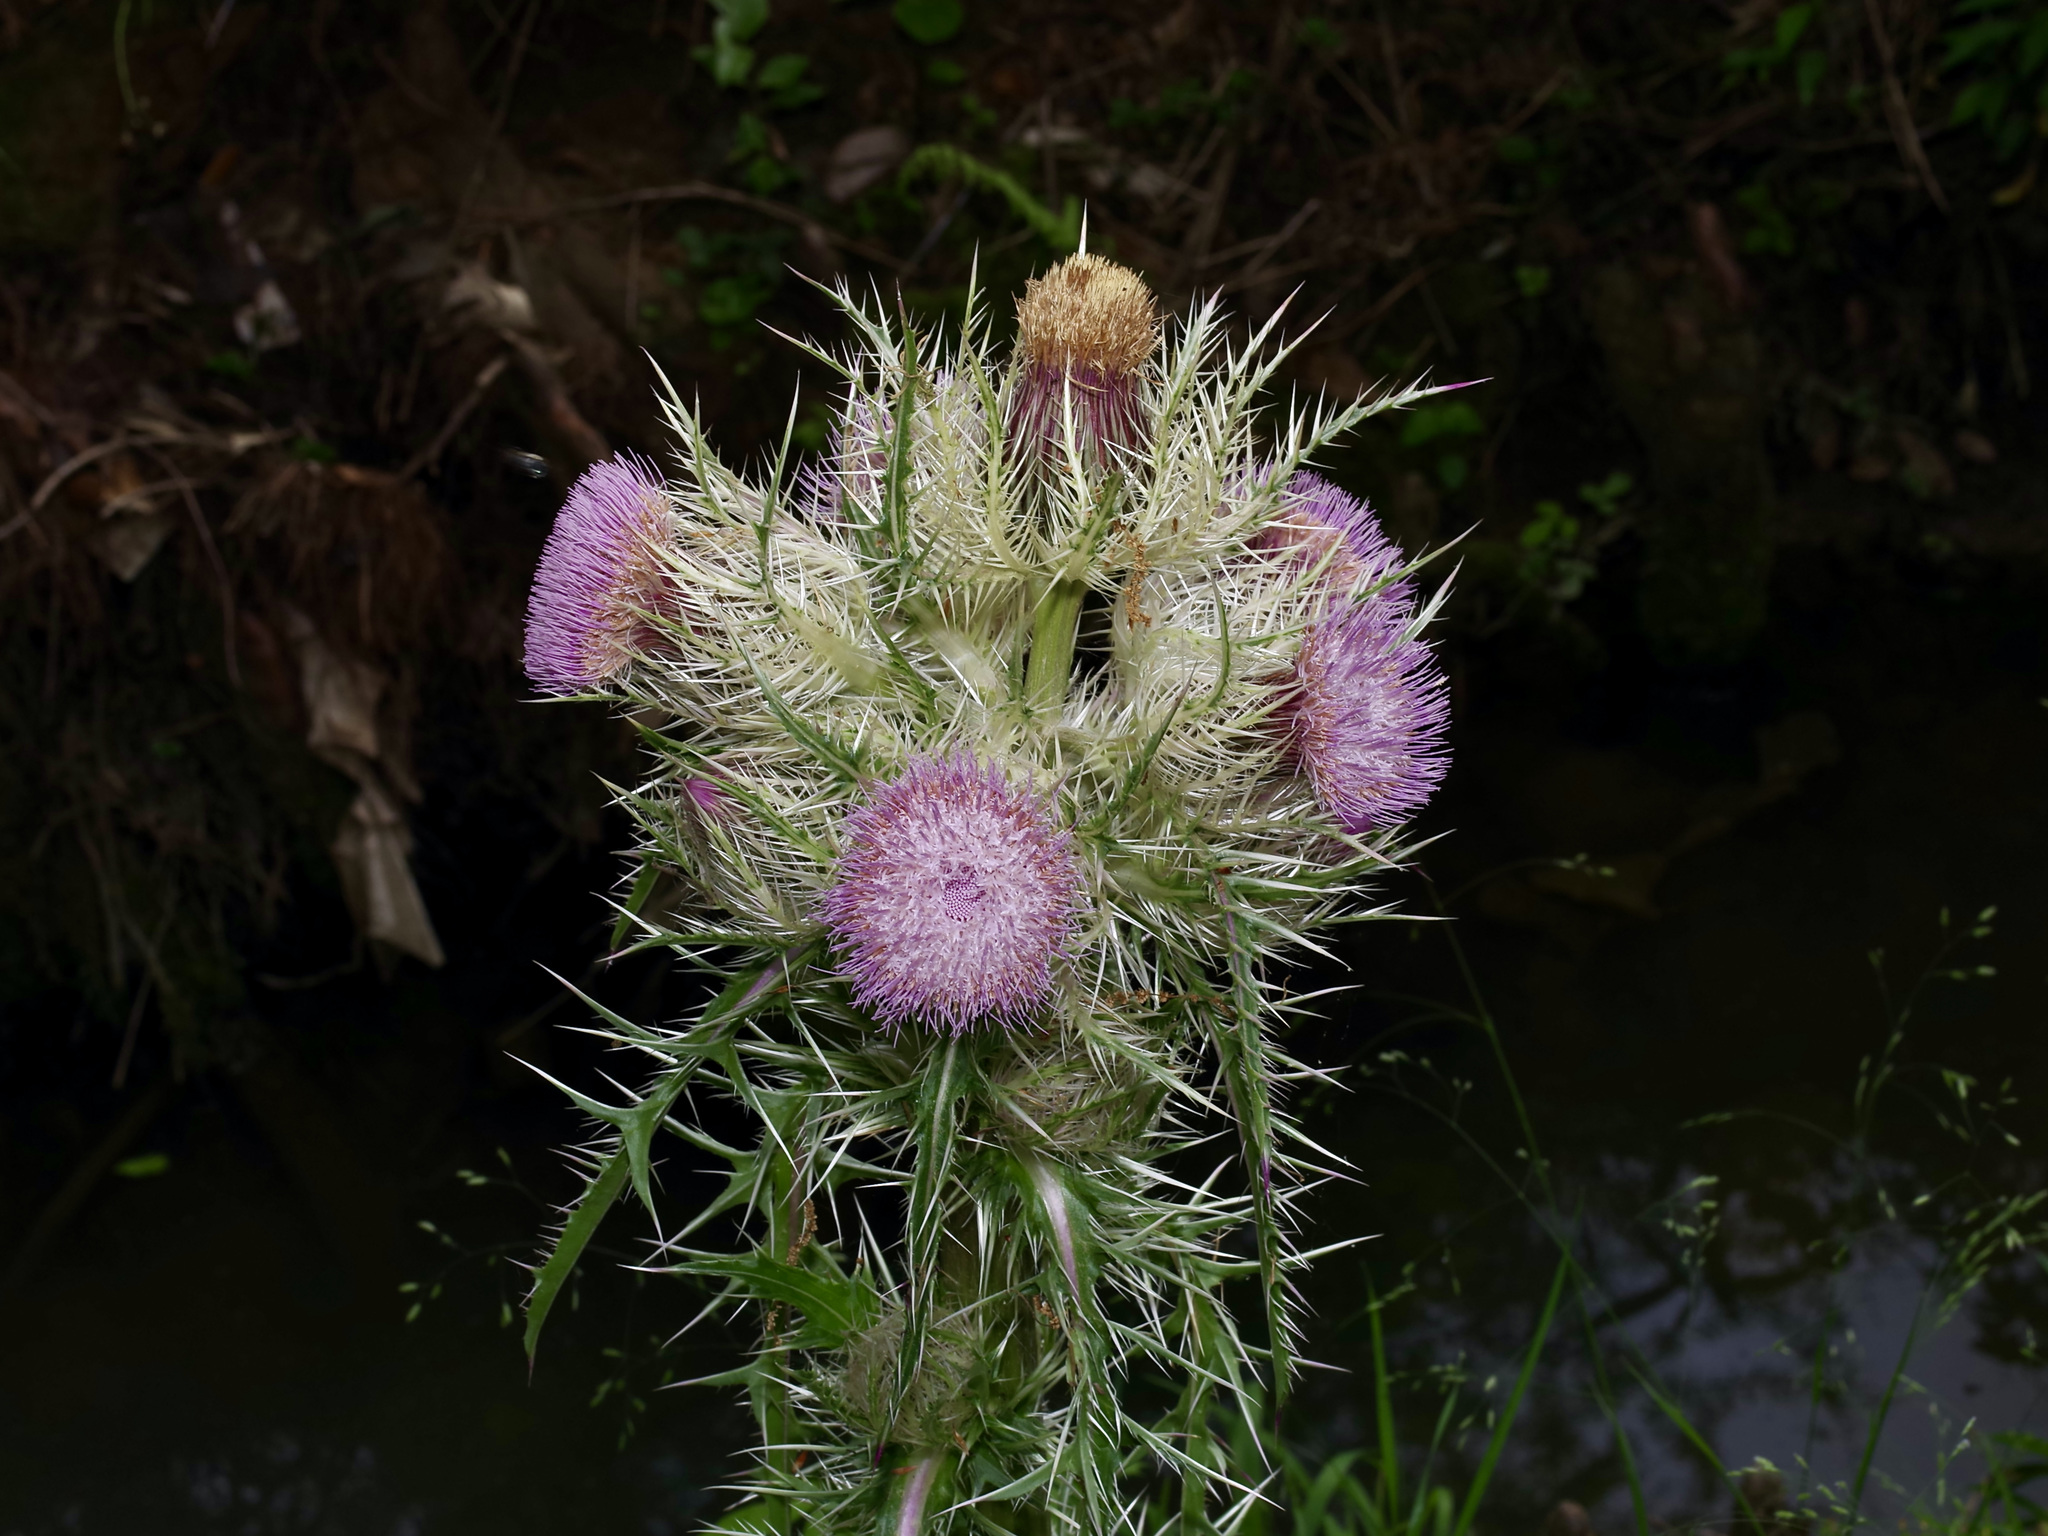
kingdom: Plantae
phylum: Tracheophyta
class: Magnoliopsida
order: Asterales
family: Asteraceae
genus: Cirsium
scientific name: Cirsium horridulum
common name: Bristly thistle
